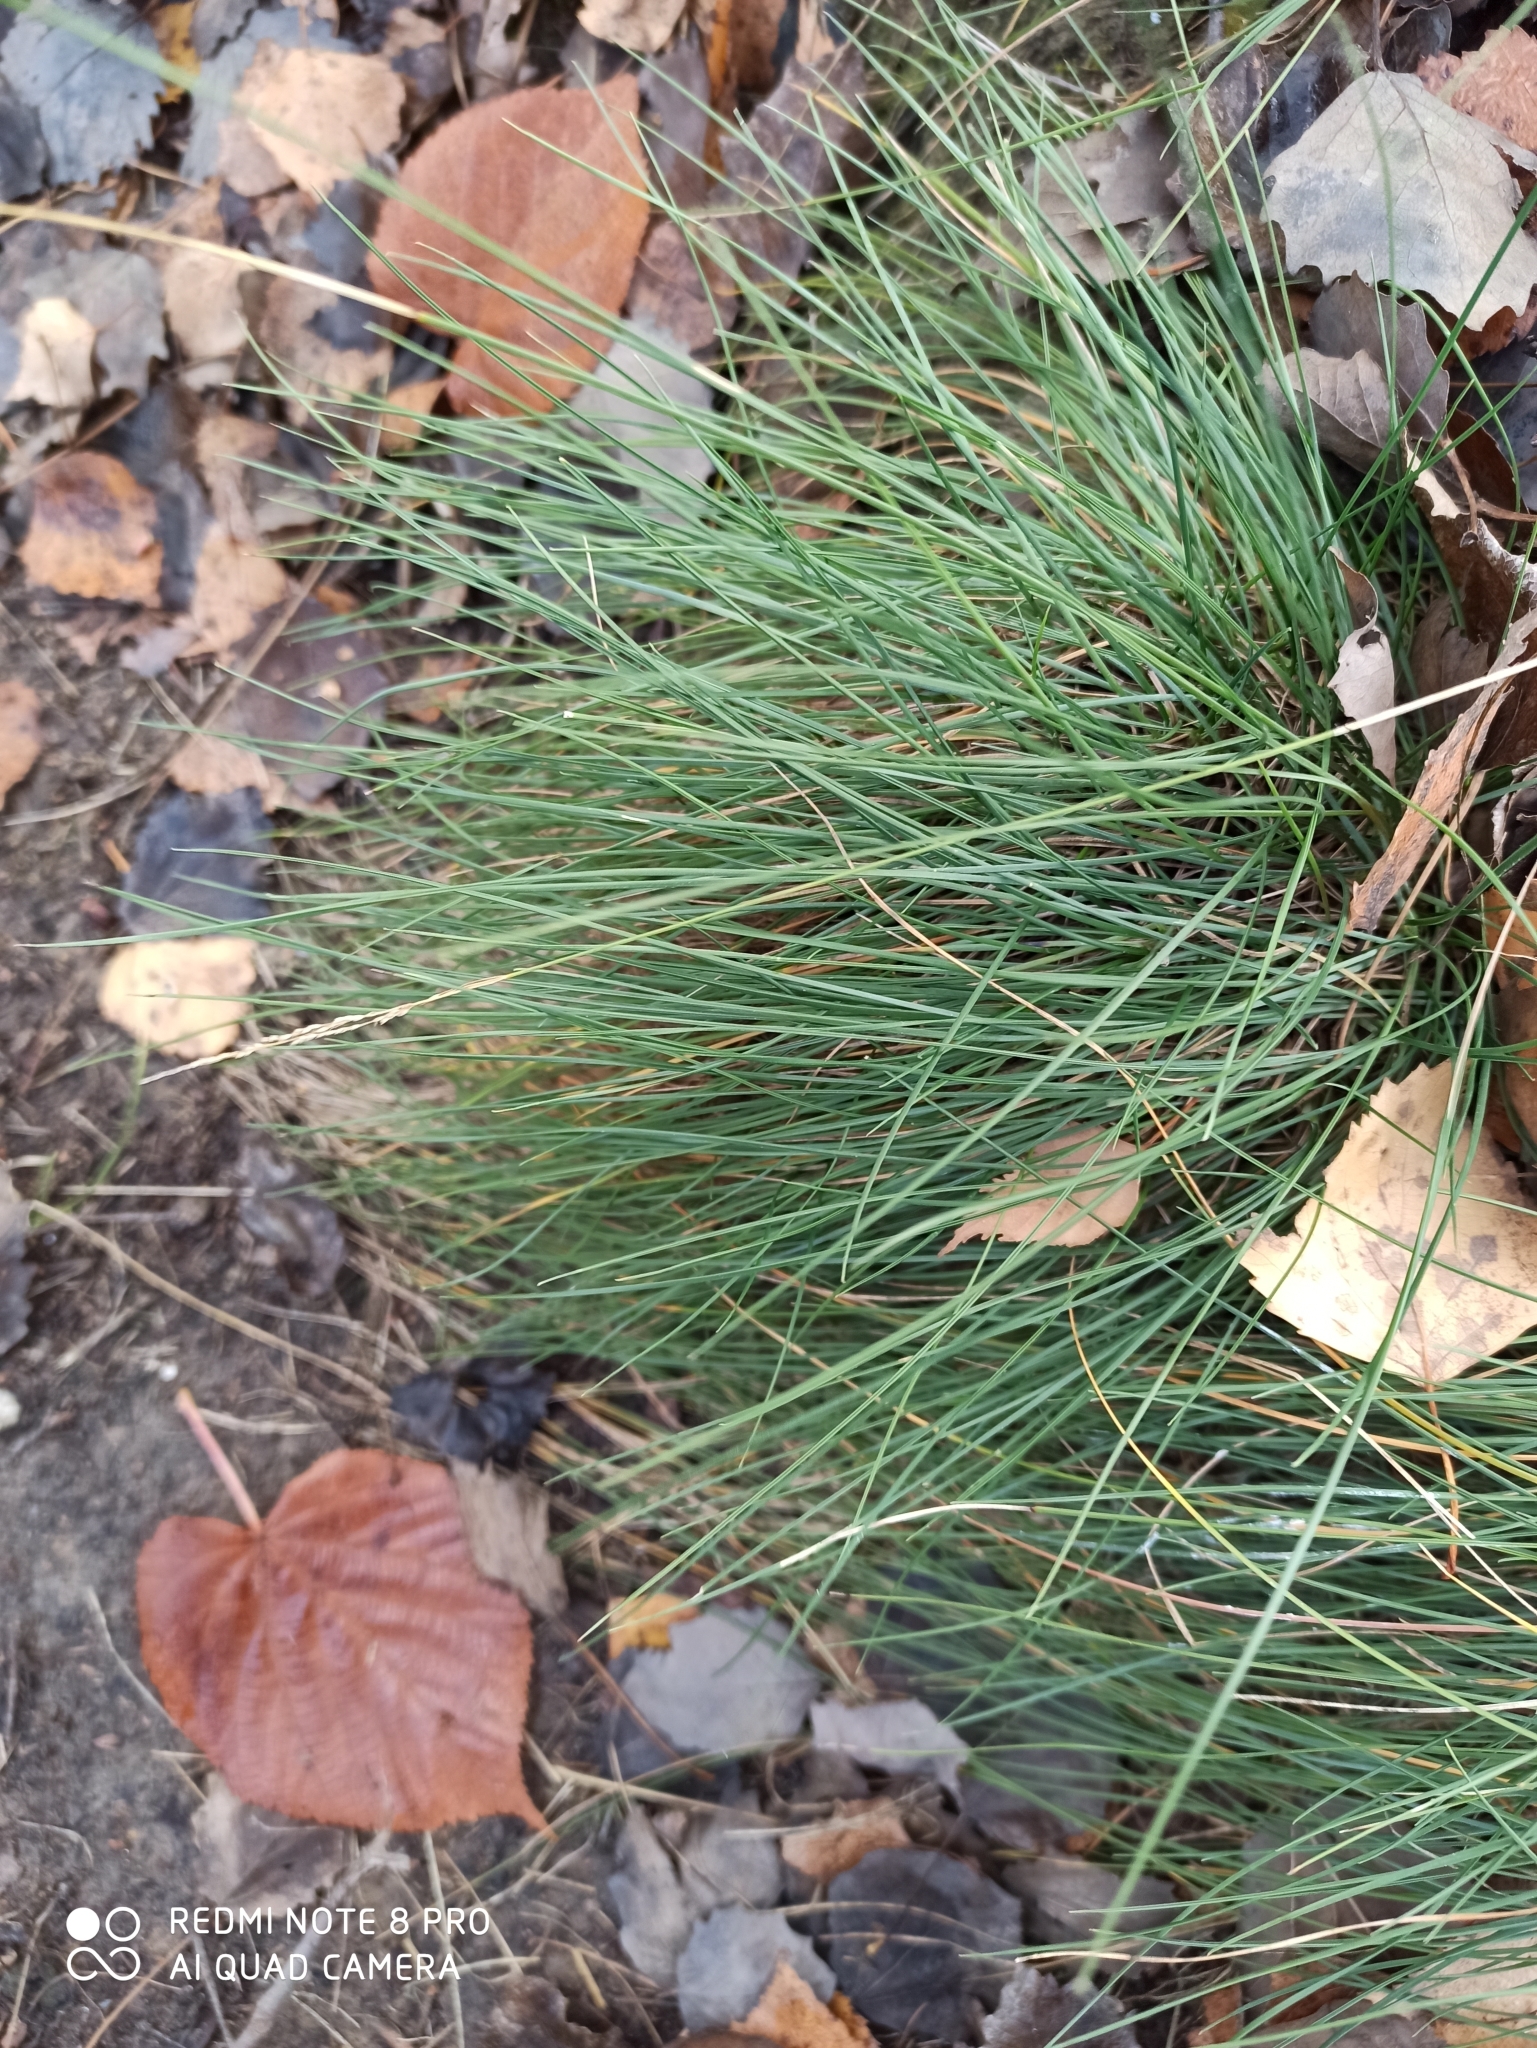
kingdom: Plantae
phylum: Tracheophyta
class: Liliopsida
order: Poales
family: Poaceae
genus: Festuca
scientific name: Festuca ovina
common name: Sheep fescue
